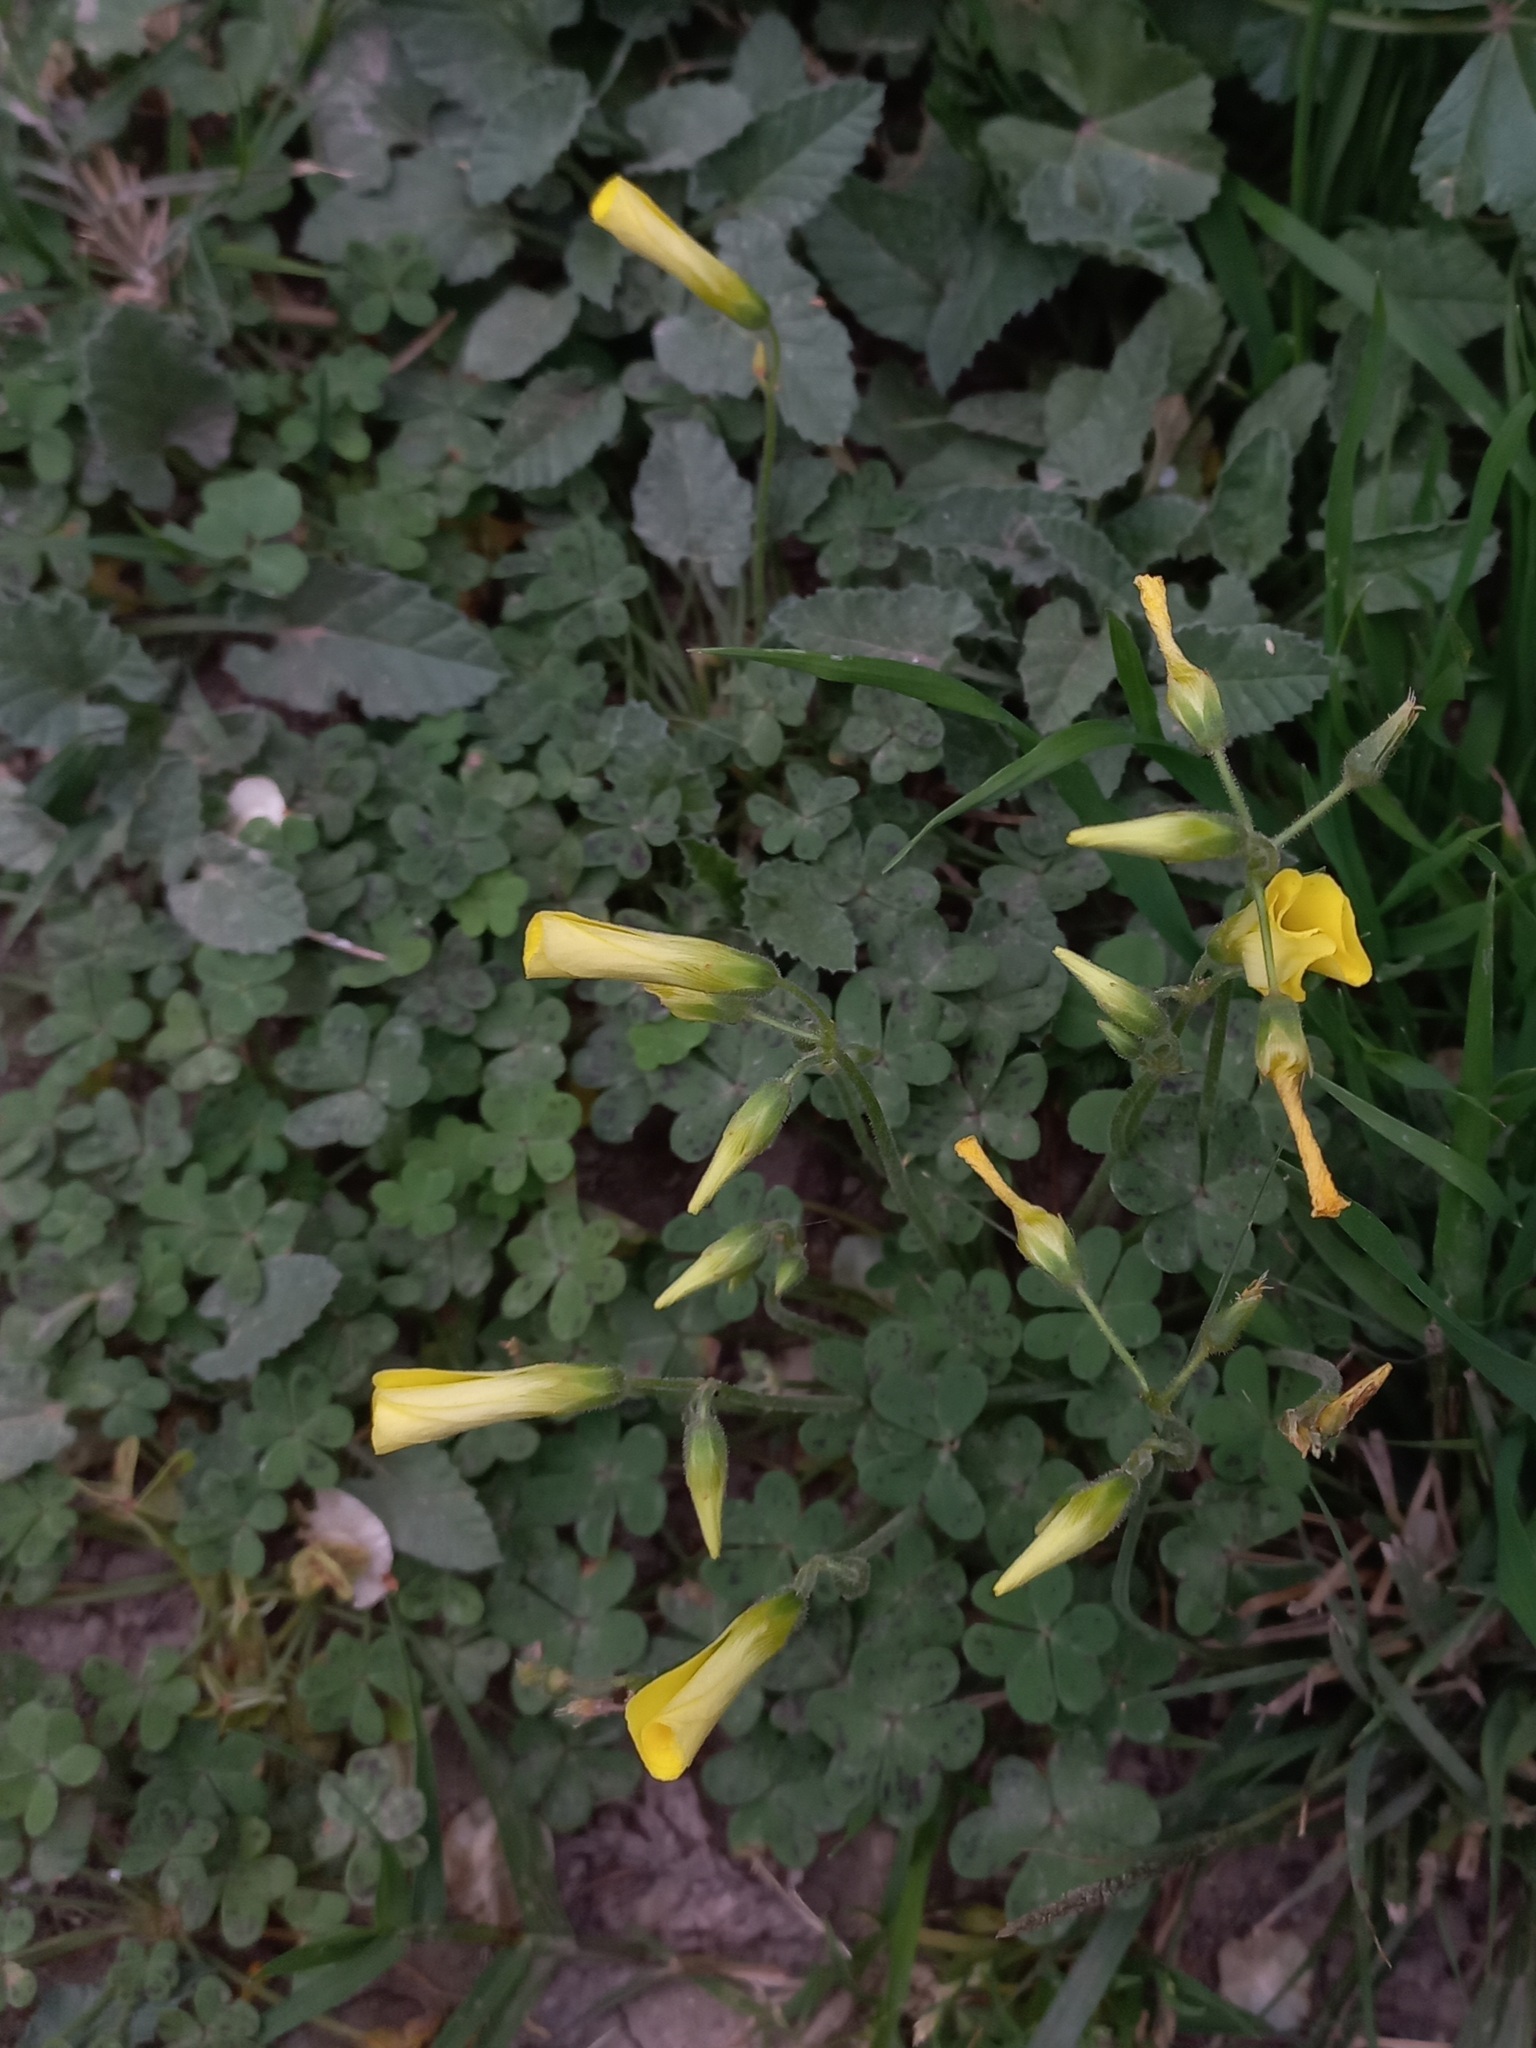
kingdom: Plantae
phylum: Tracheophyta
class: Magnoliopsida
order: Oxalidales
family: Oxalidaceae
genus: Oxalis
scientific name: Oxalis pes-caprae
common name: Bermuda-buttercup
